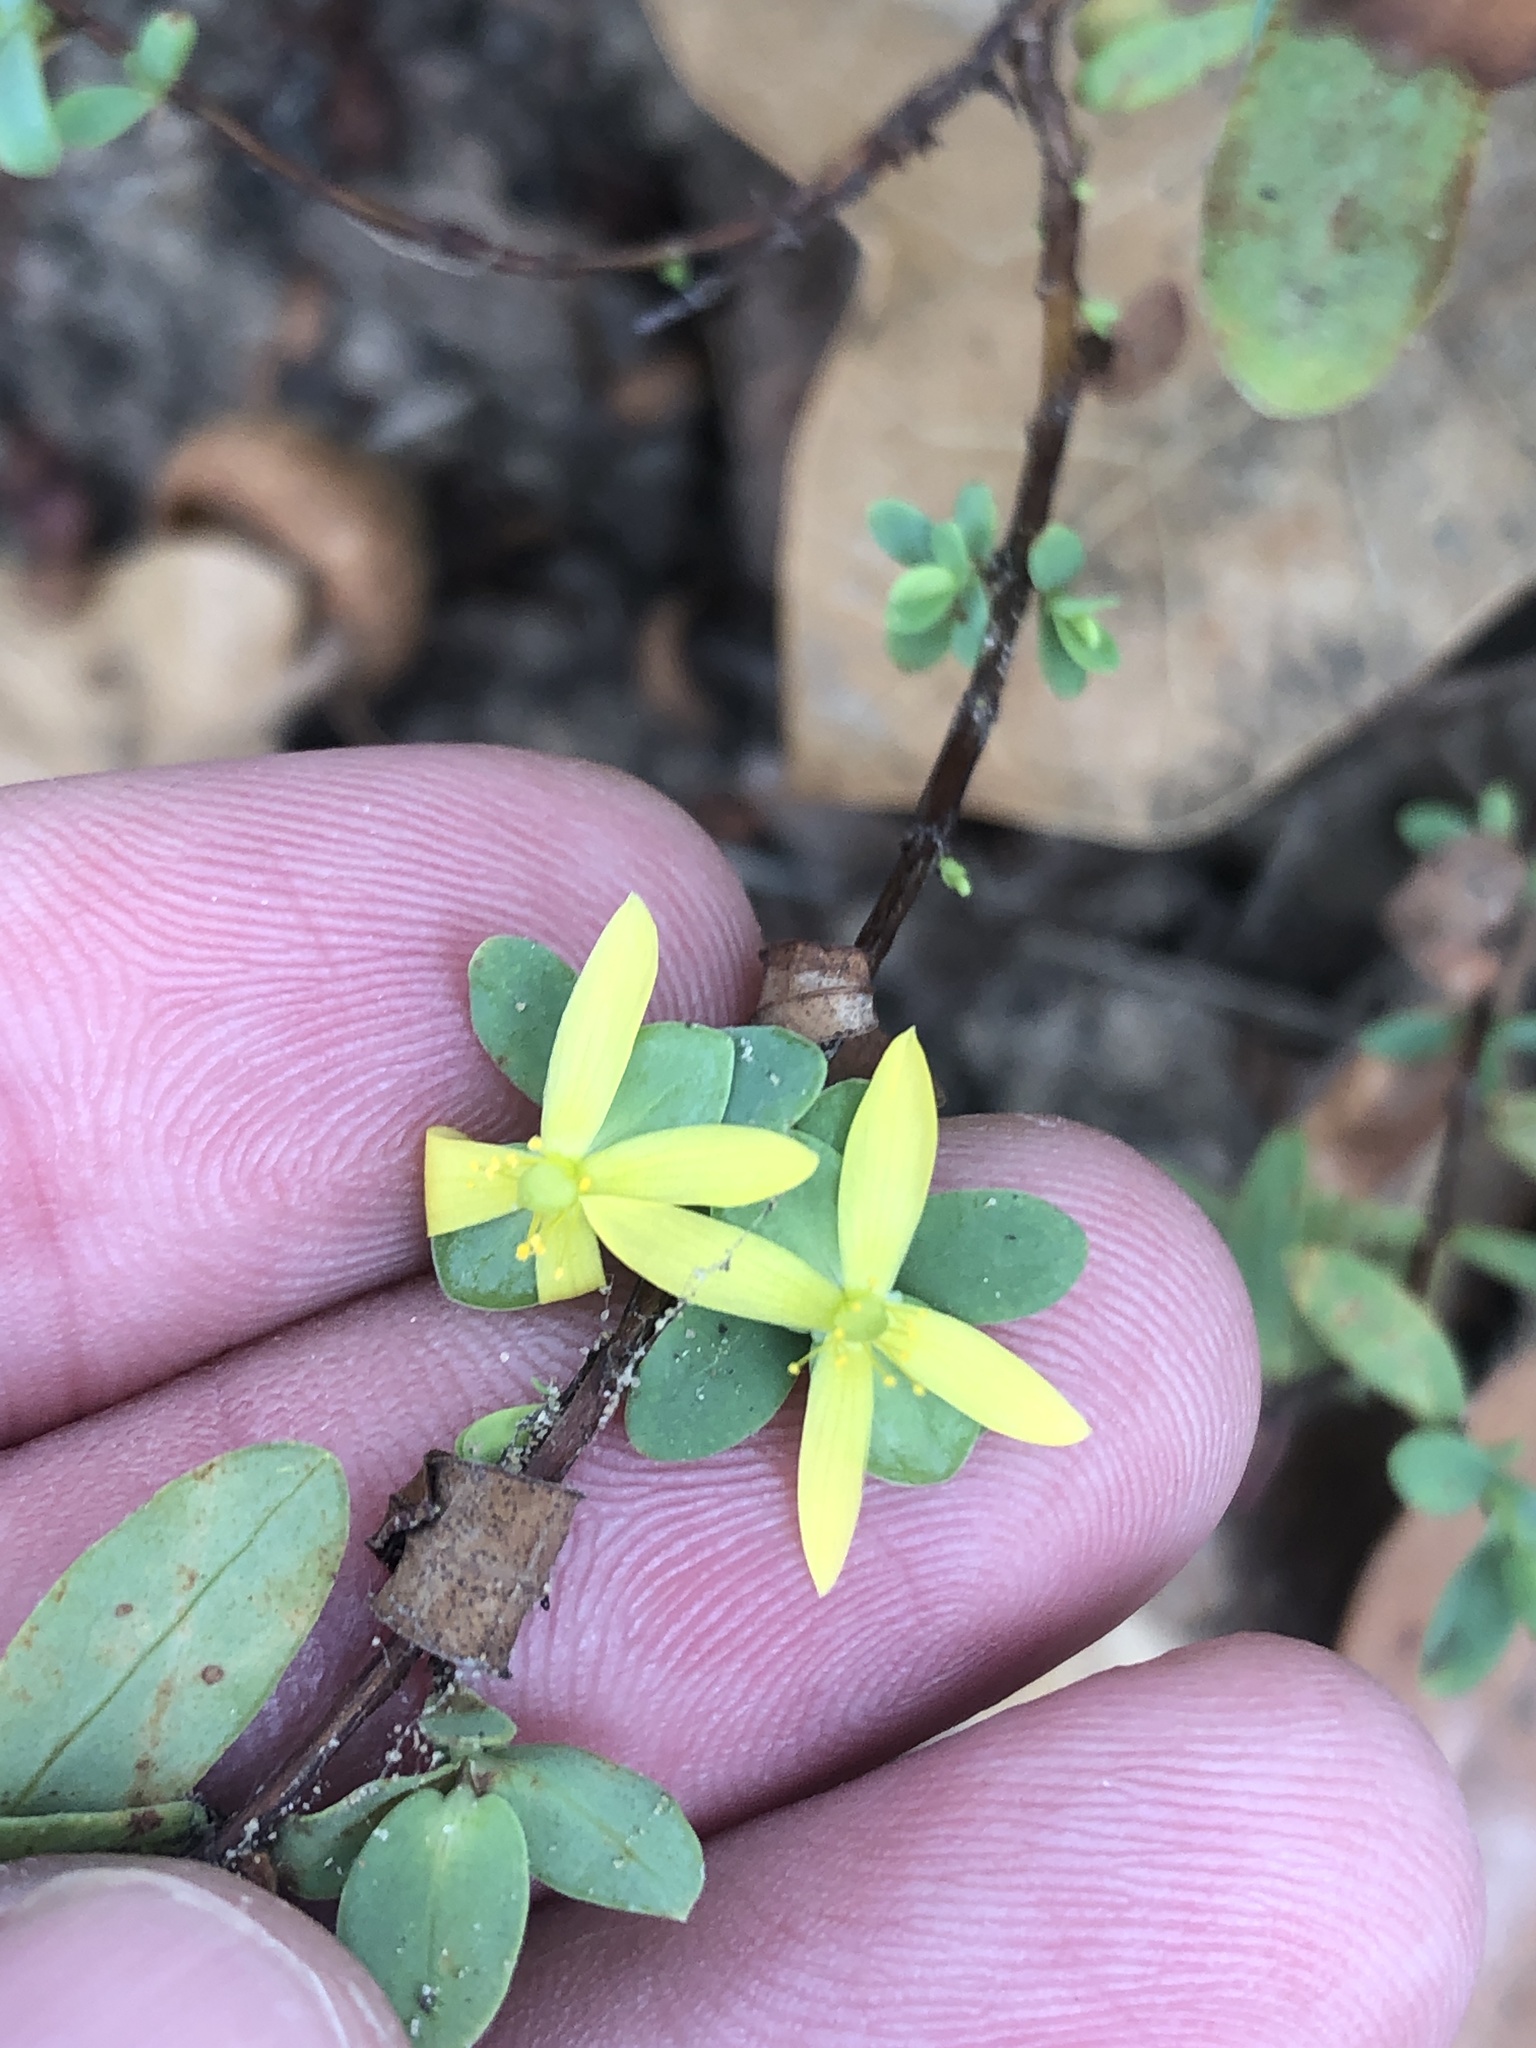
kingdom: Plantae
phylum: Tracheophyta
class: Magnoliopsida
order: Malpighiales
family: Hypericaceae
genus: Hypericum
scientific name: Hypericum hypericoides
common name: St. andrew's cross
